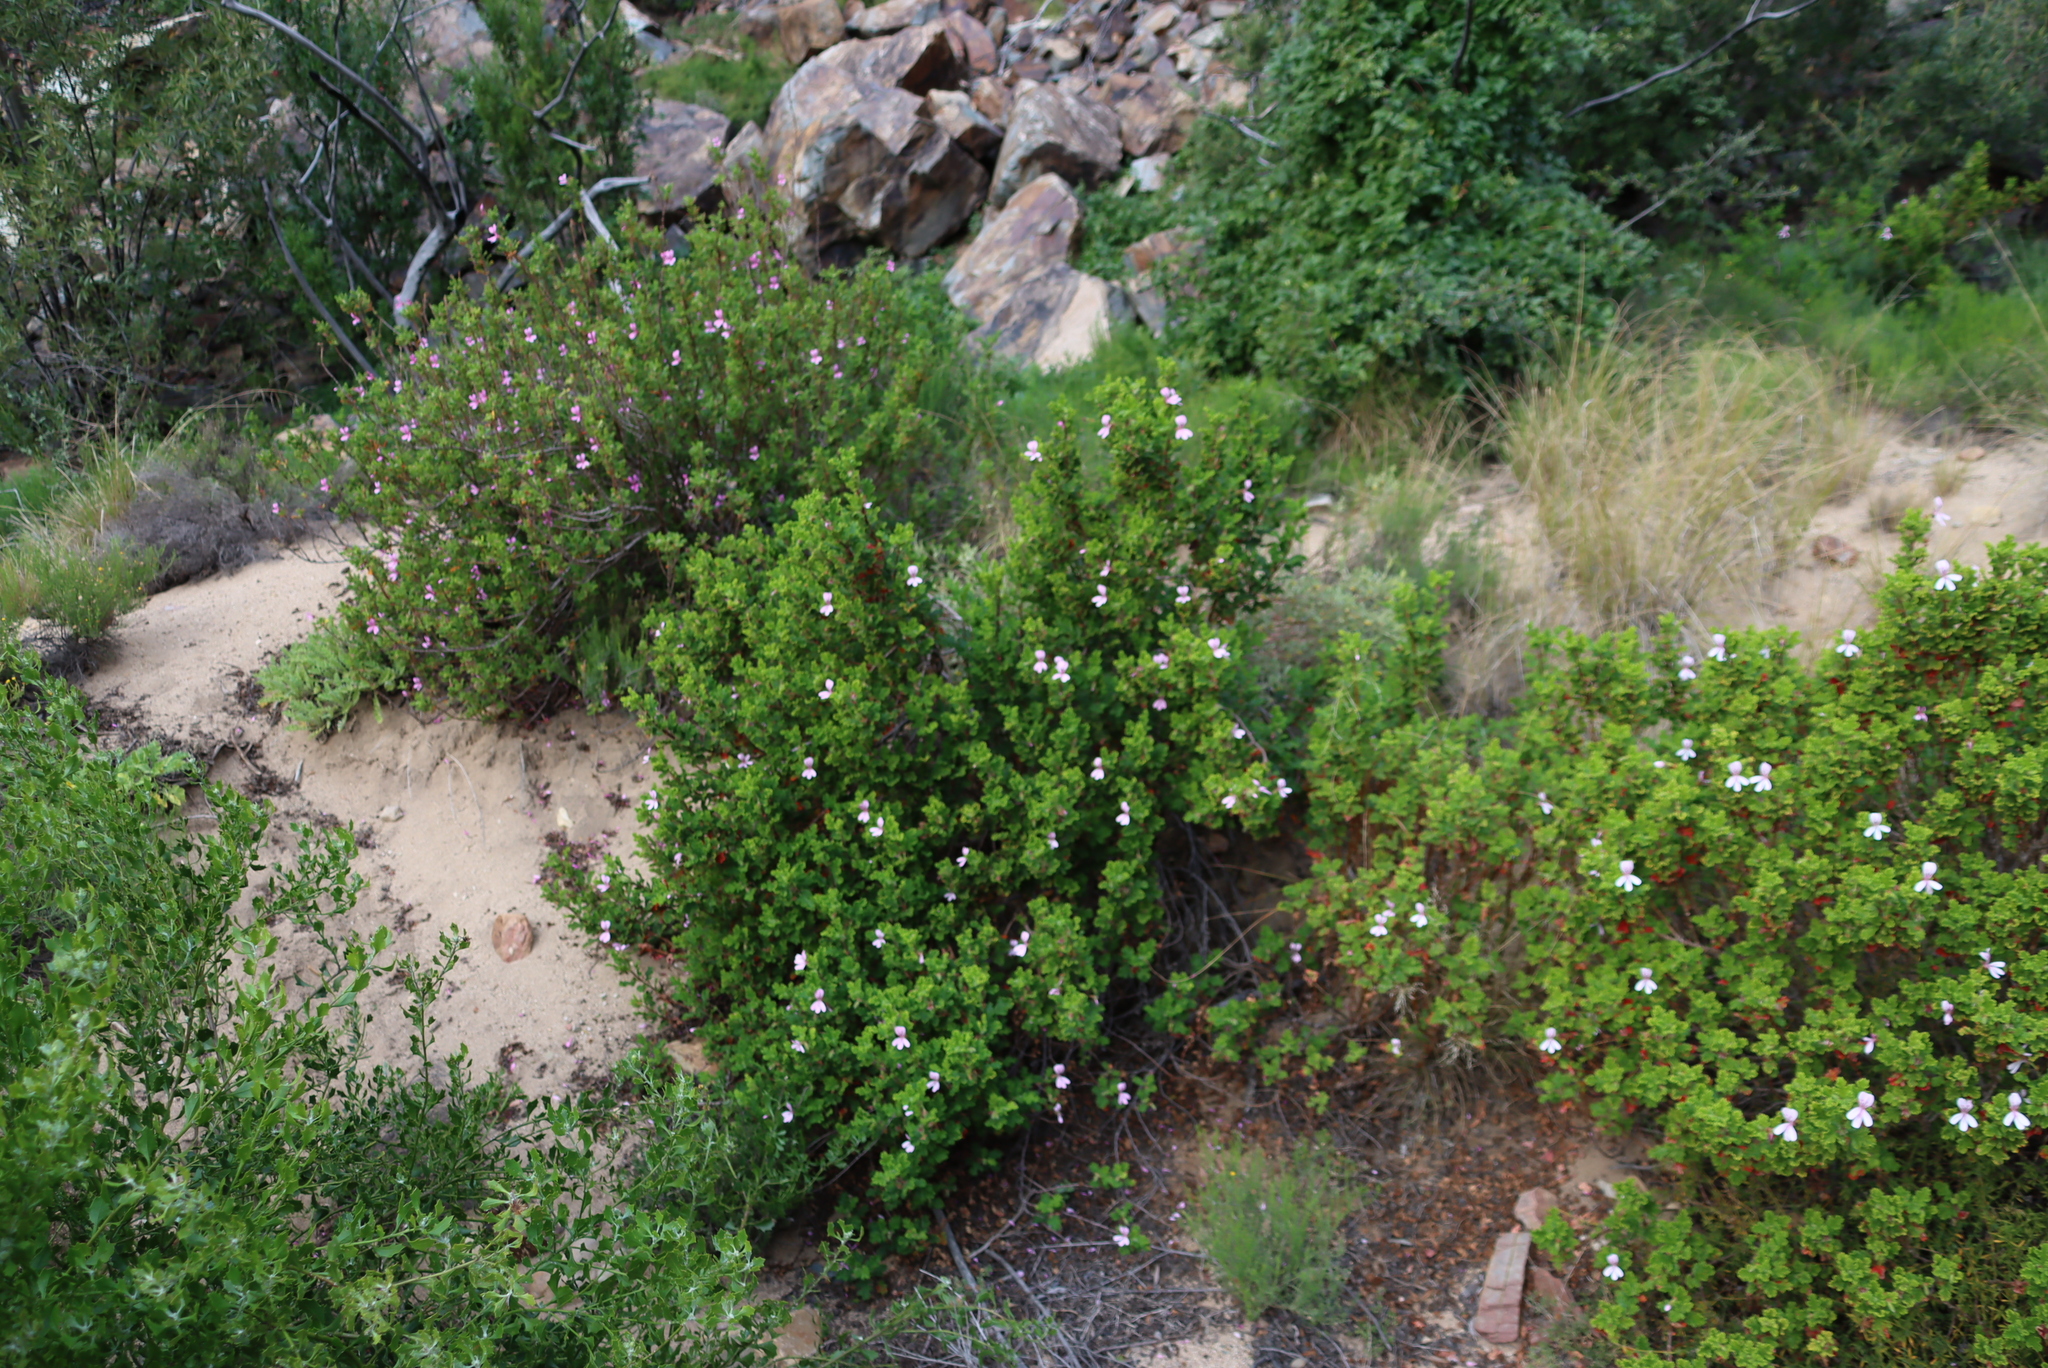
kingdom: Plantae
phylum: Tracheophyta
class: Magnoliopsida
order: Geraniales
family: Geraniaceae
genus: Pelargonium
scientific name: Pelargonium panduriforme
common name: Oakleaf garden geranium
